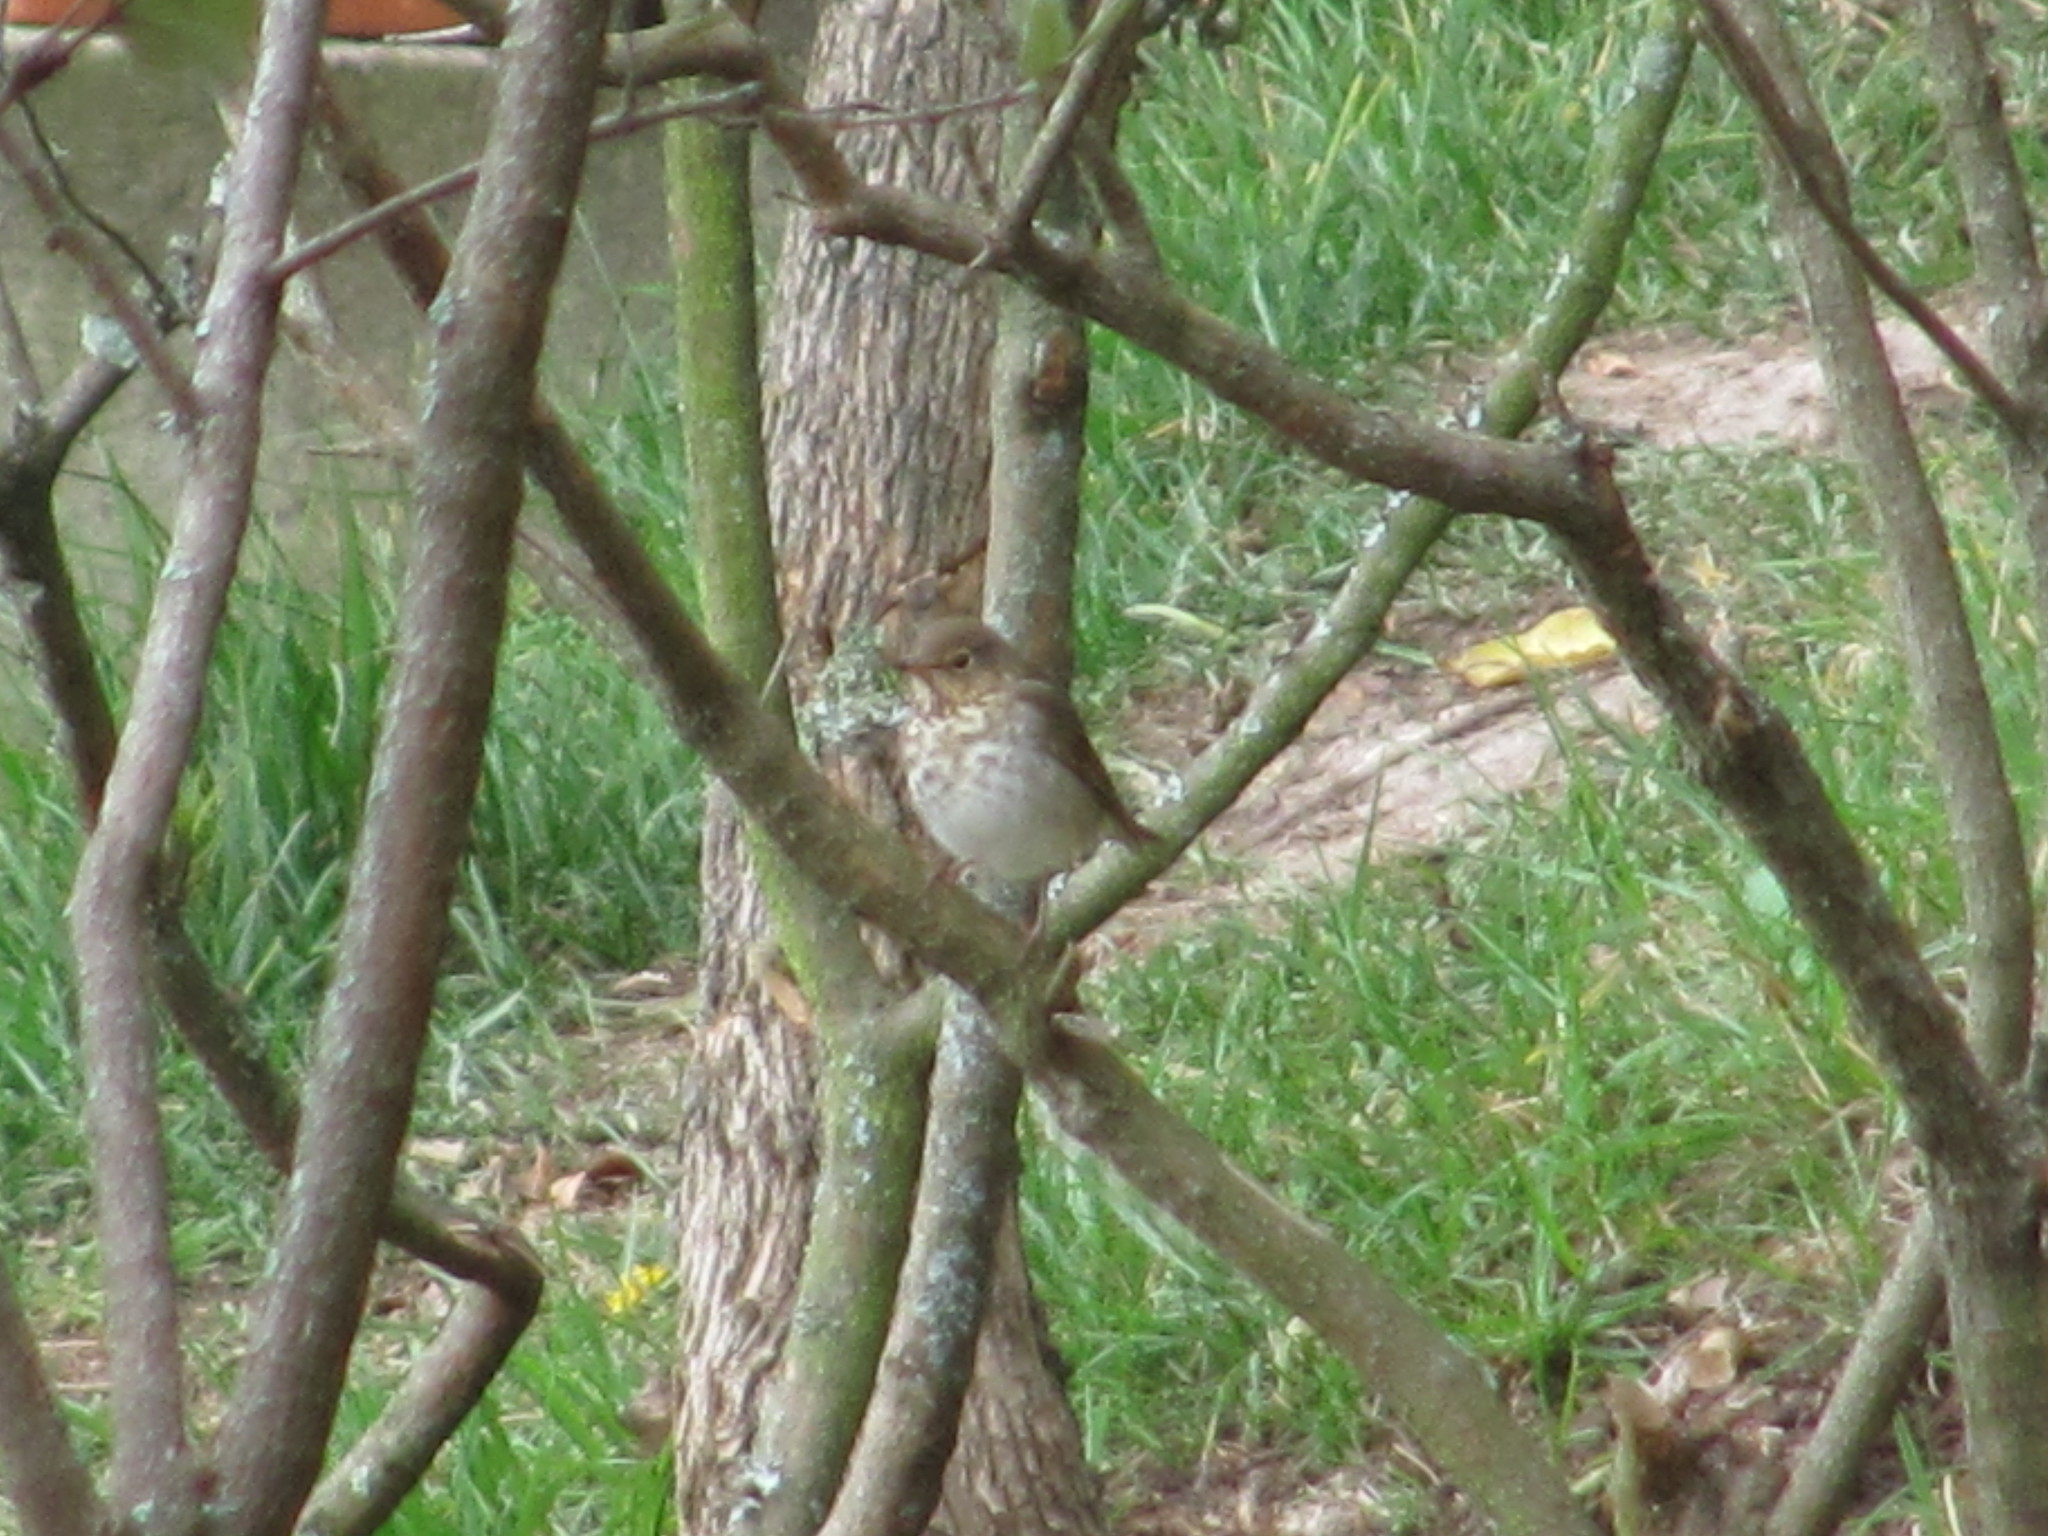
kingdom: Animalia
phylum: Chordata
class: Aves
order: Passeriformes
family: Turdidae
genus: Catharus
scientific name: Catharus ustulatus
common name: Swainson's thrush
